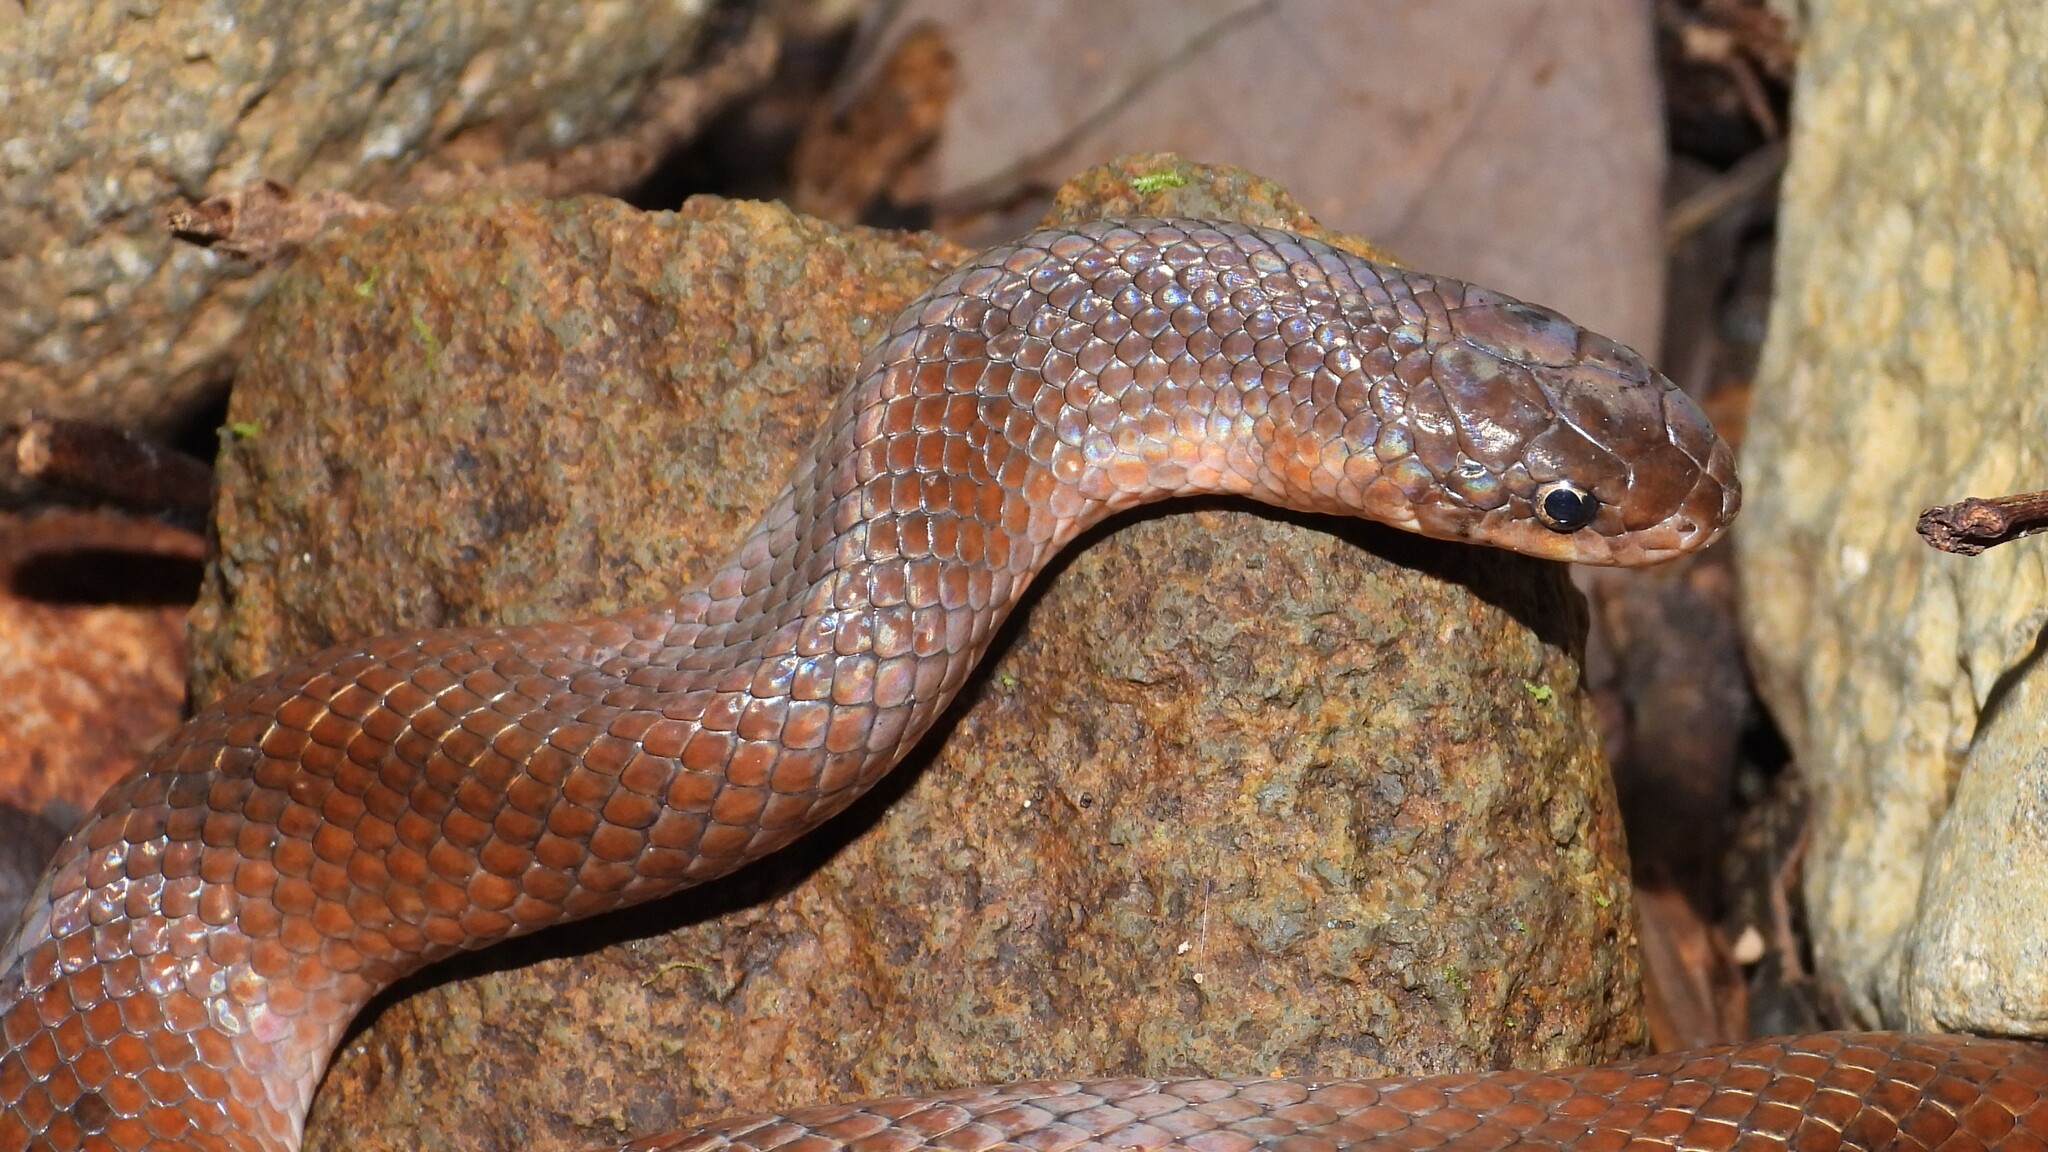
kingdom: Animalia
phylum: Chordata
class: Squamata
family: Colubridae
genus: Stenorrhina
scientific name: Stenorrhina degenhardtii
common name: Degenhardt's scorpion-eating snake
